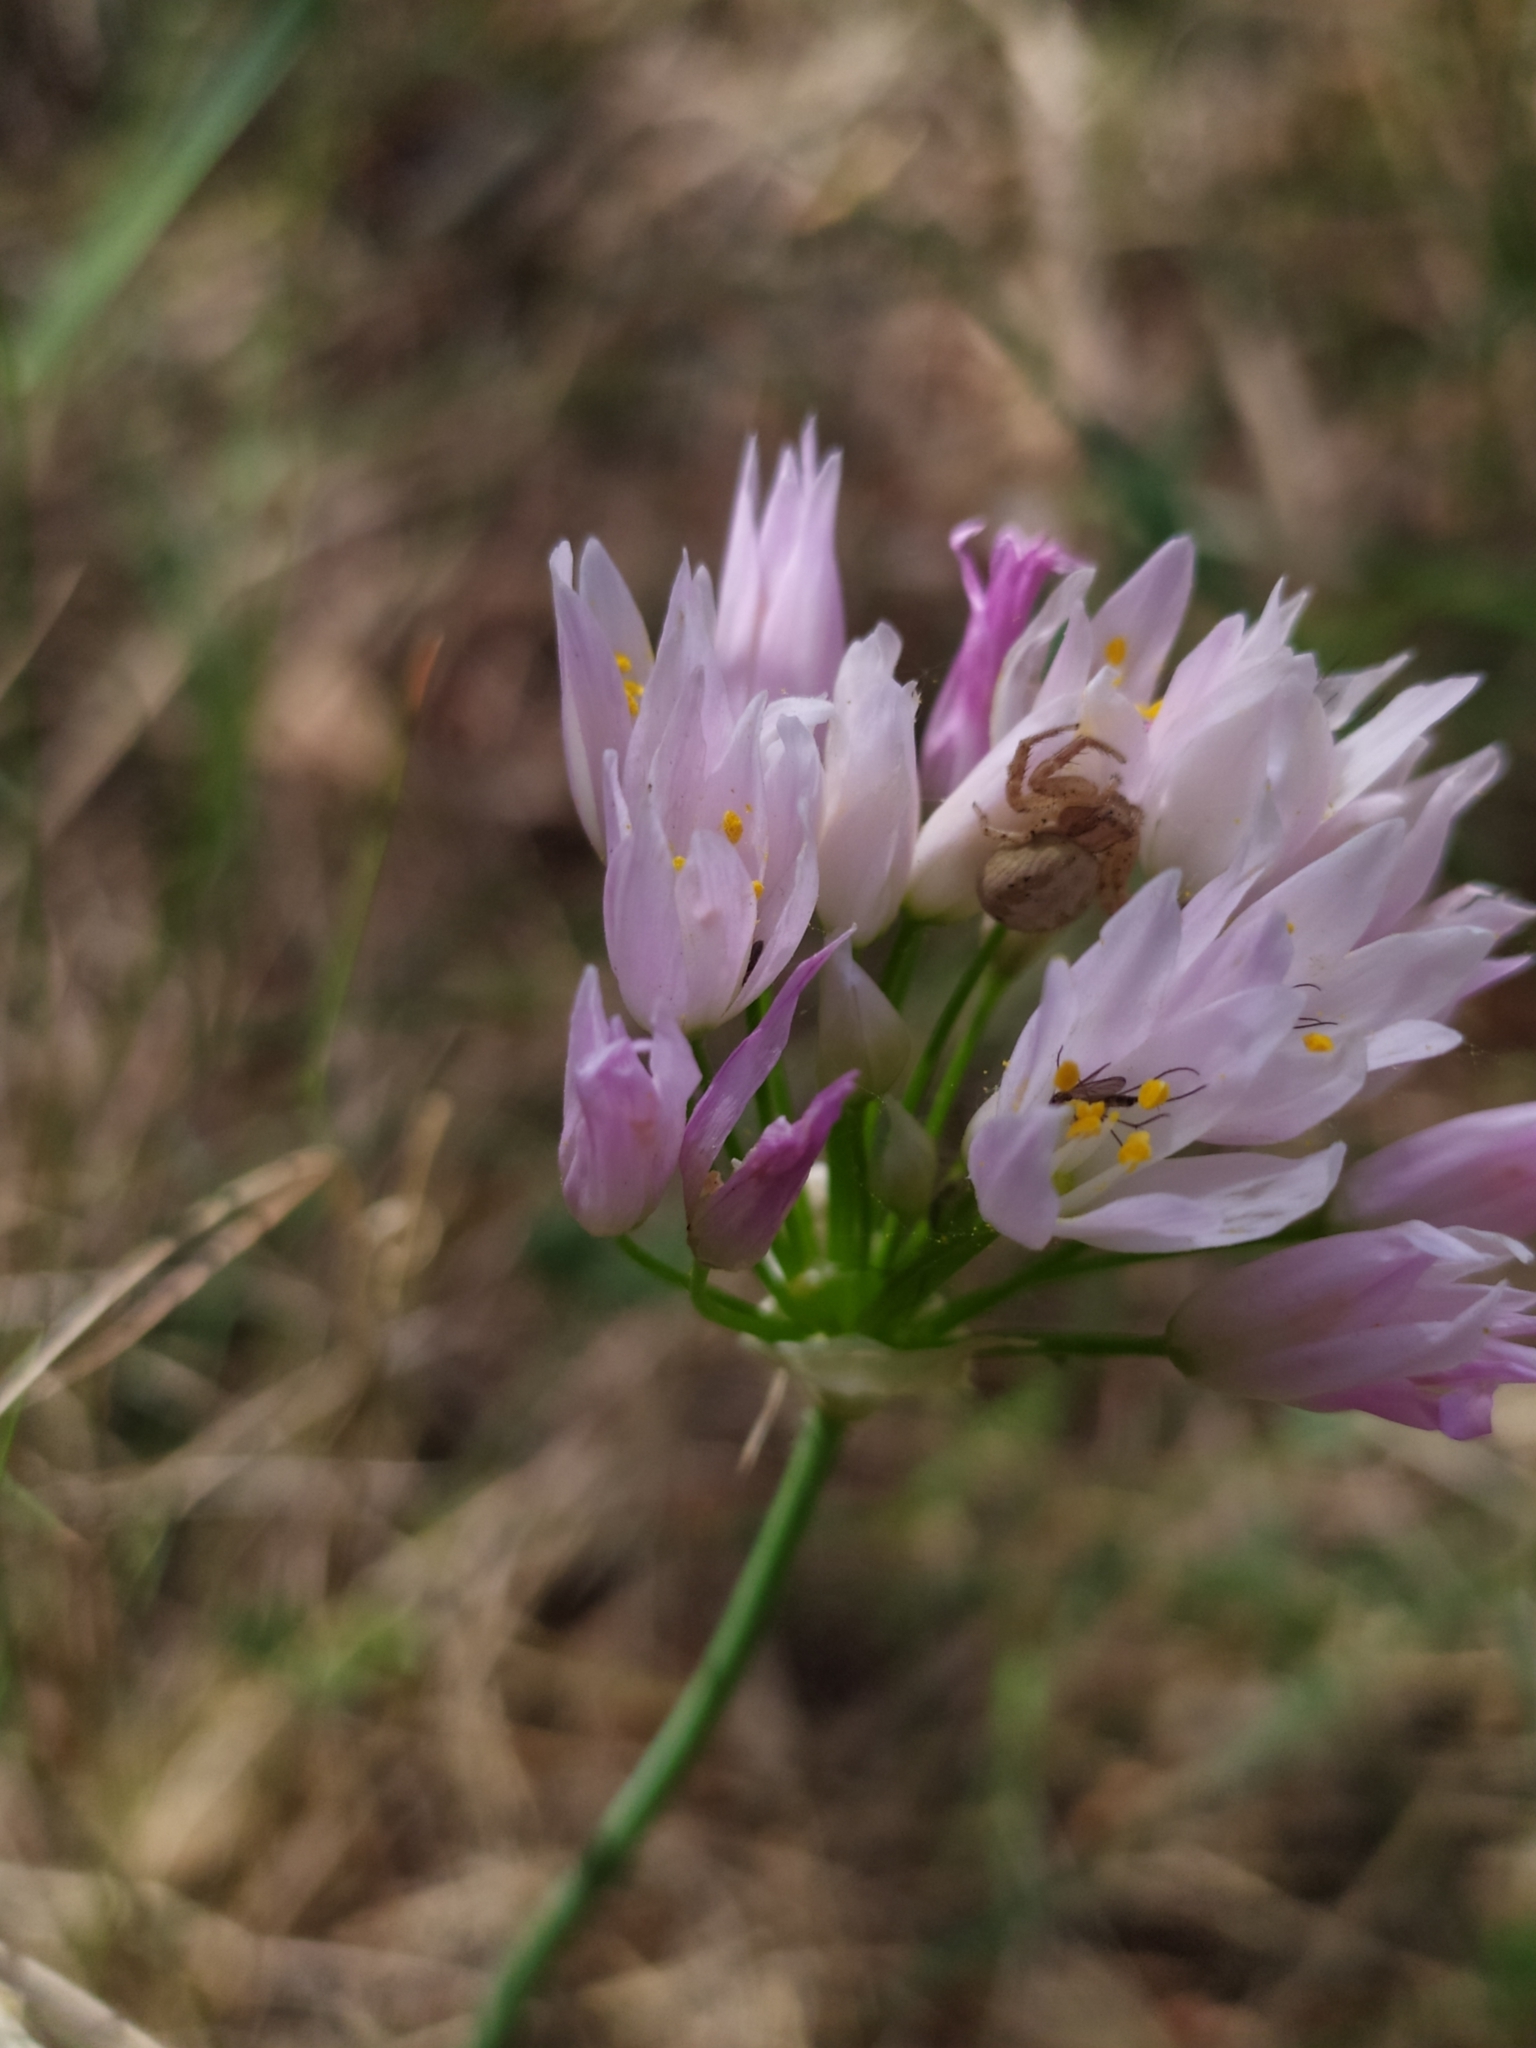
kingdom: Plantae
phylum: Tracheophyta
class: Liliopsida
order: Asparagales
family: Amaryllidaceae
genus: Allium
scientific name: Allium roseum
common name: Rosy garlic
